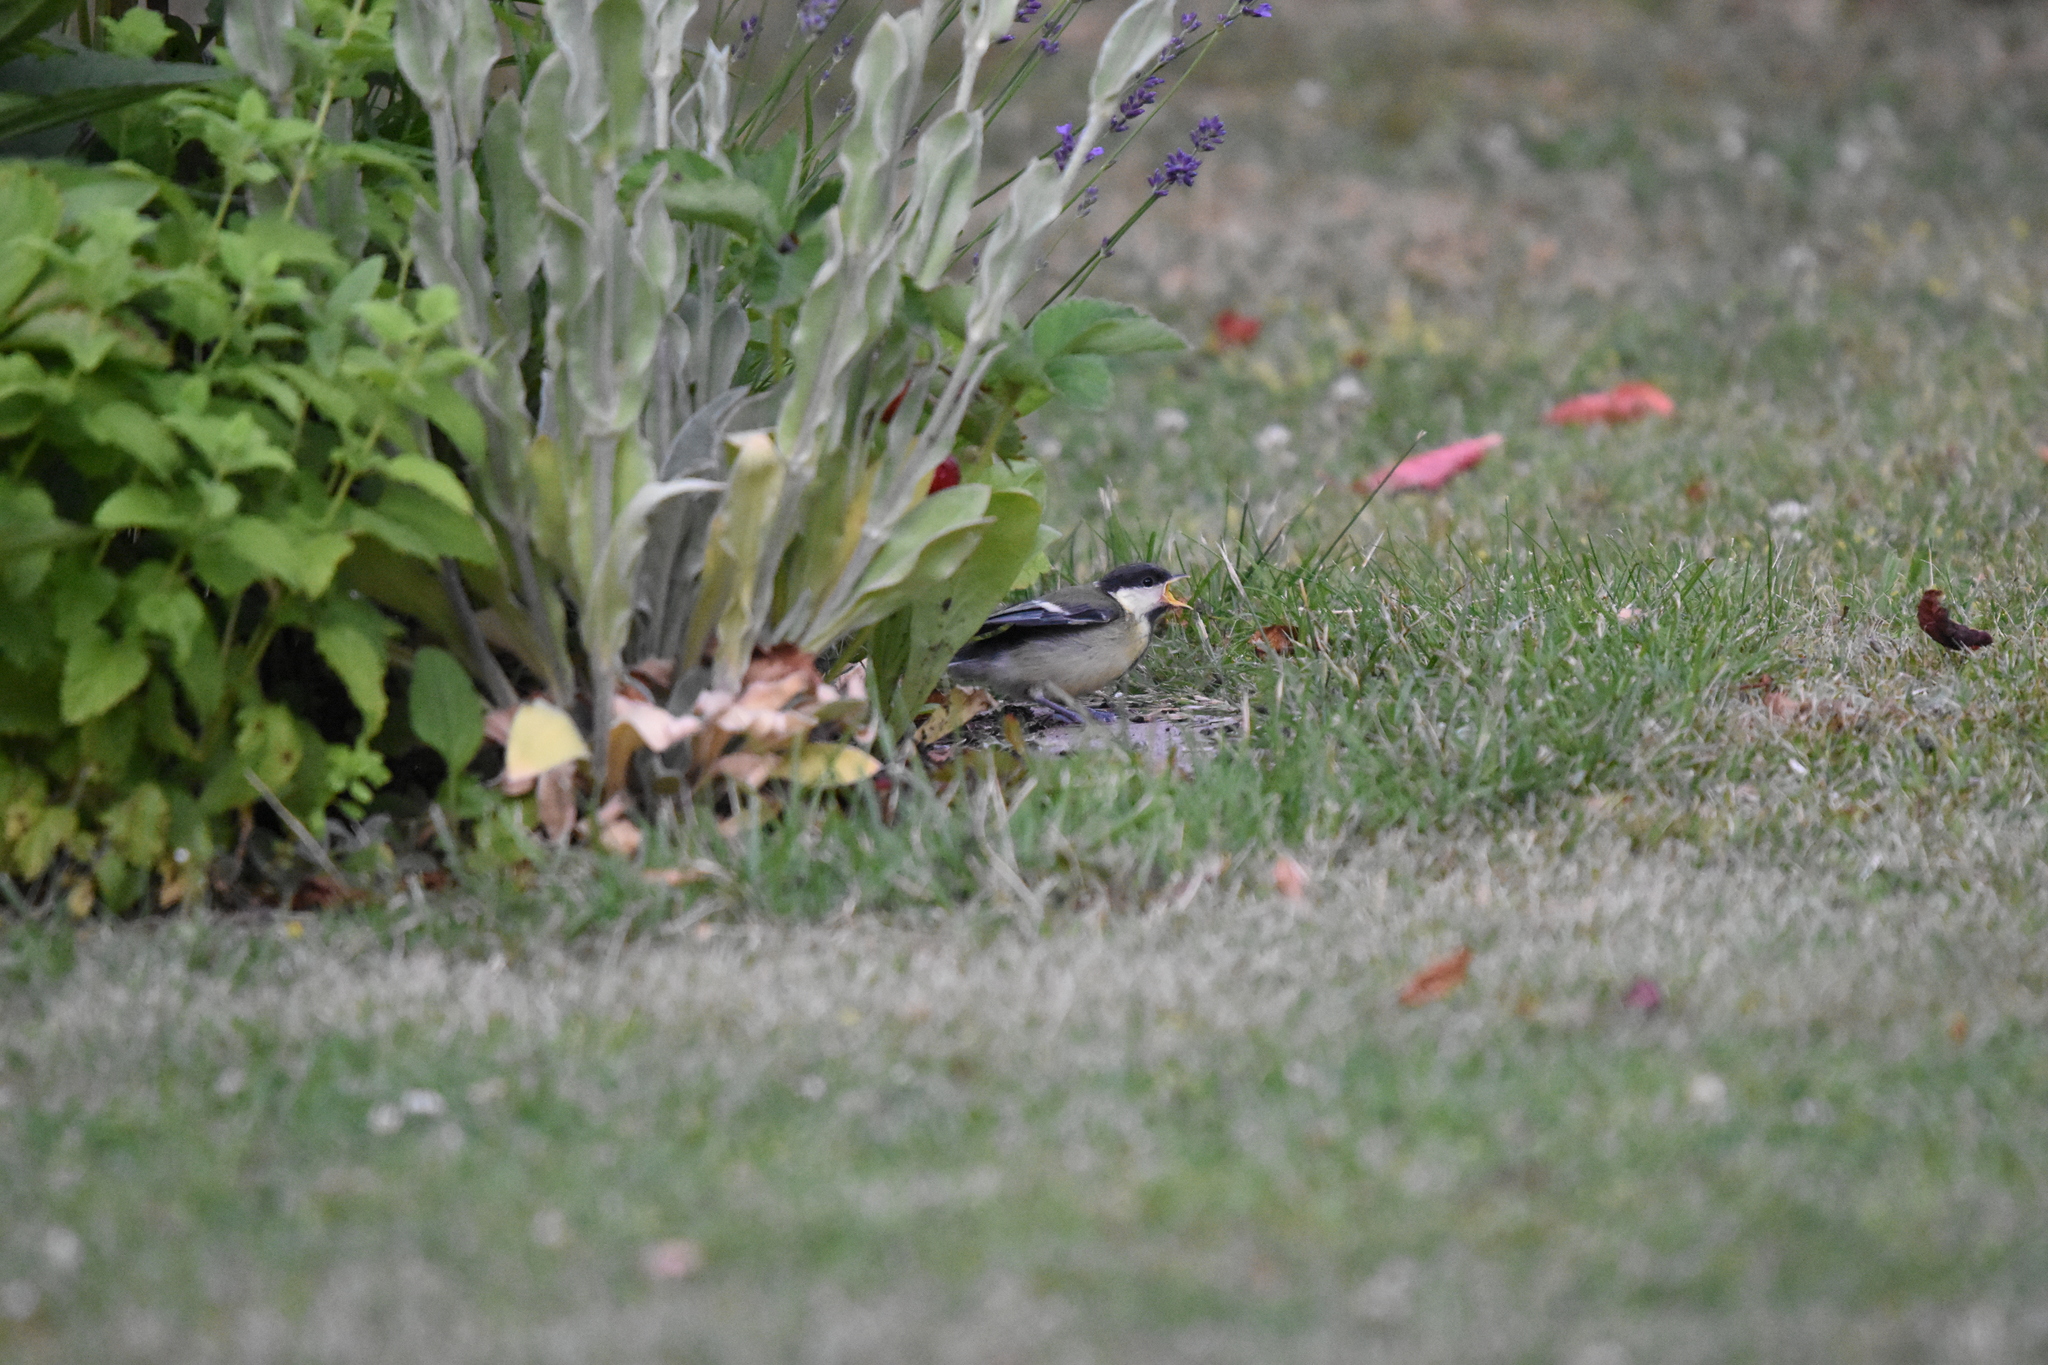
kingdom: Animalia
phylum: Chordata
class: Aves
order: Passeriformes
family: Paridae
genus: Parus
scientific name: Parus major
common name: Great tit
